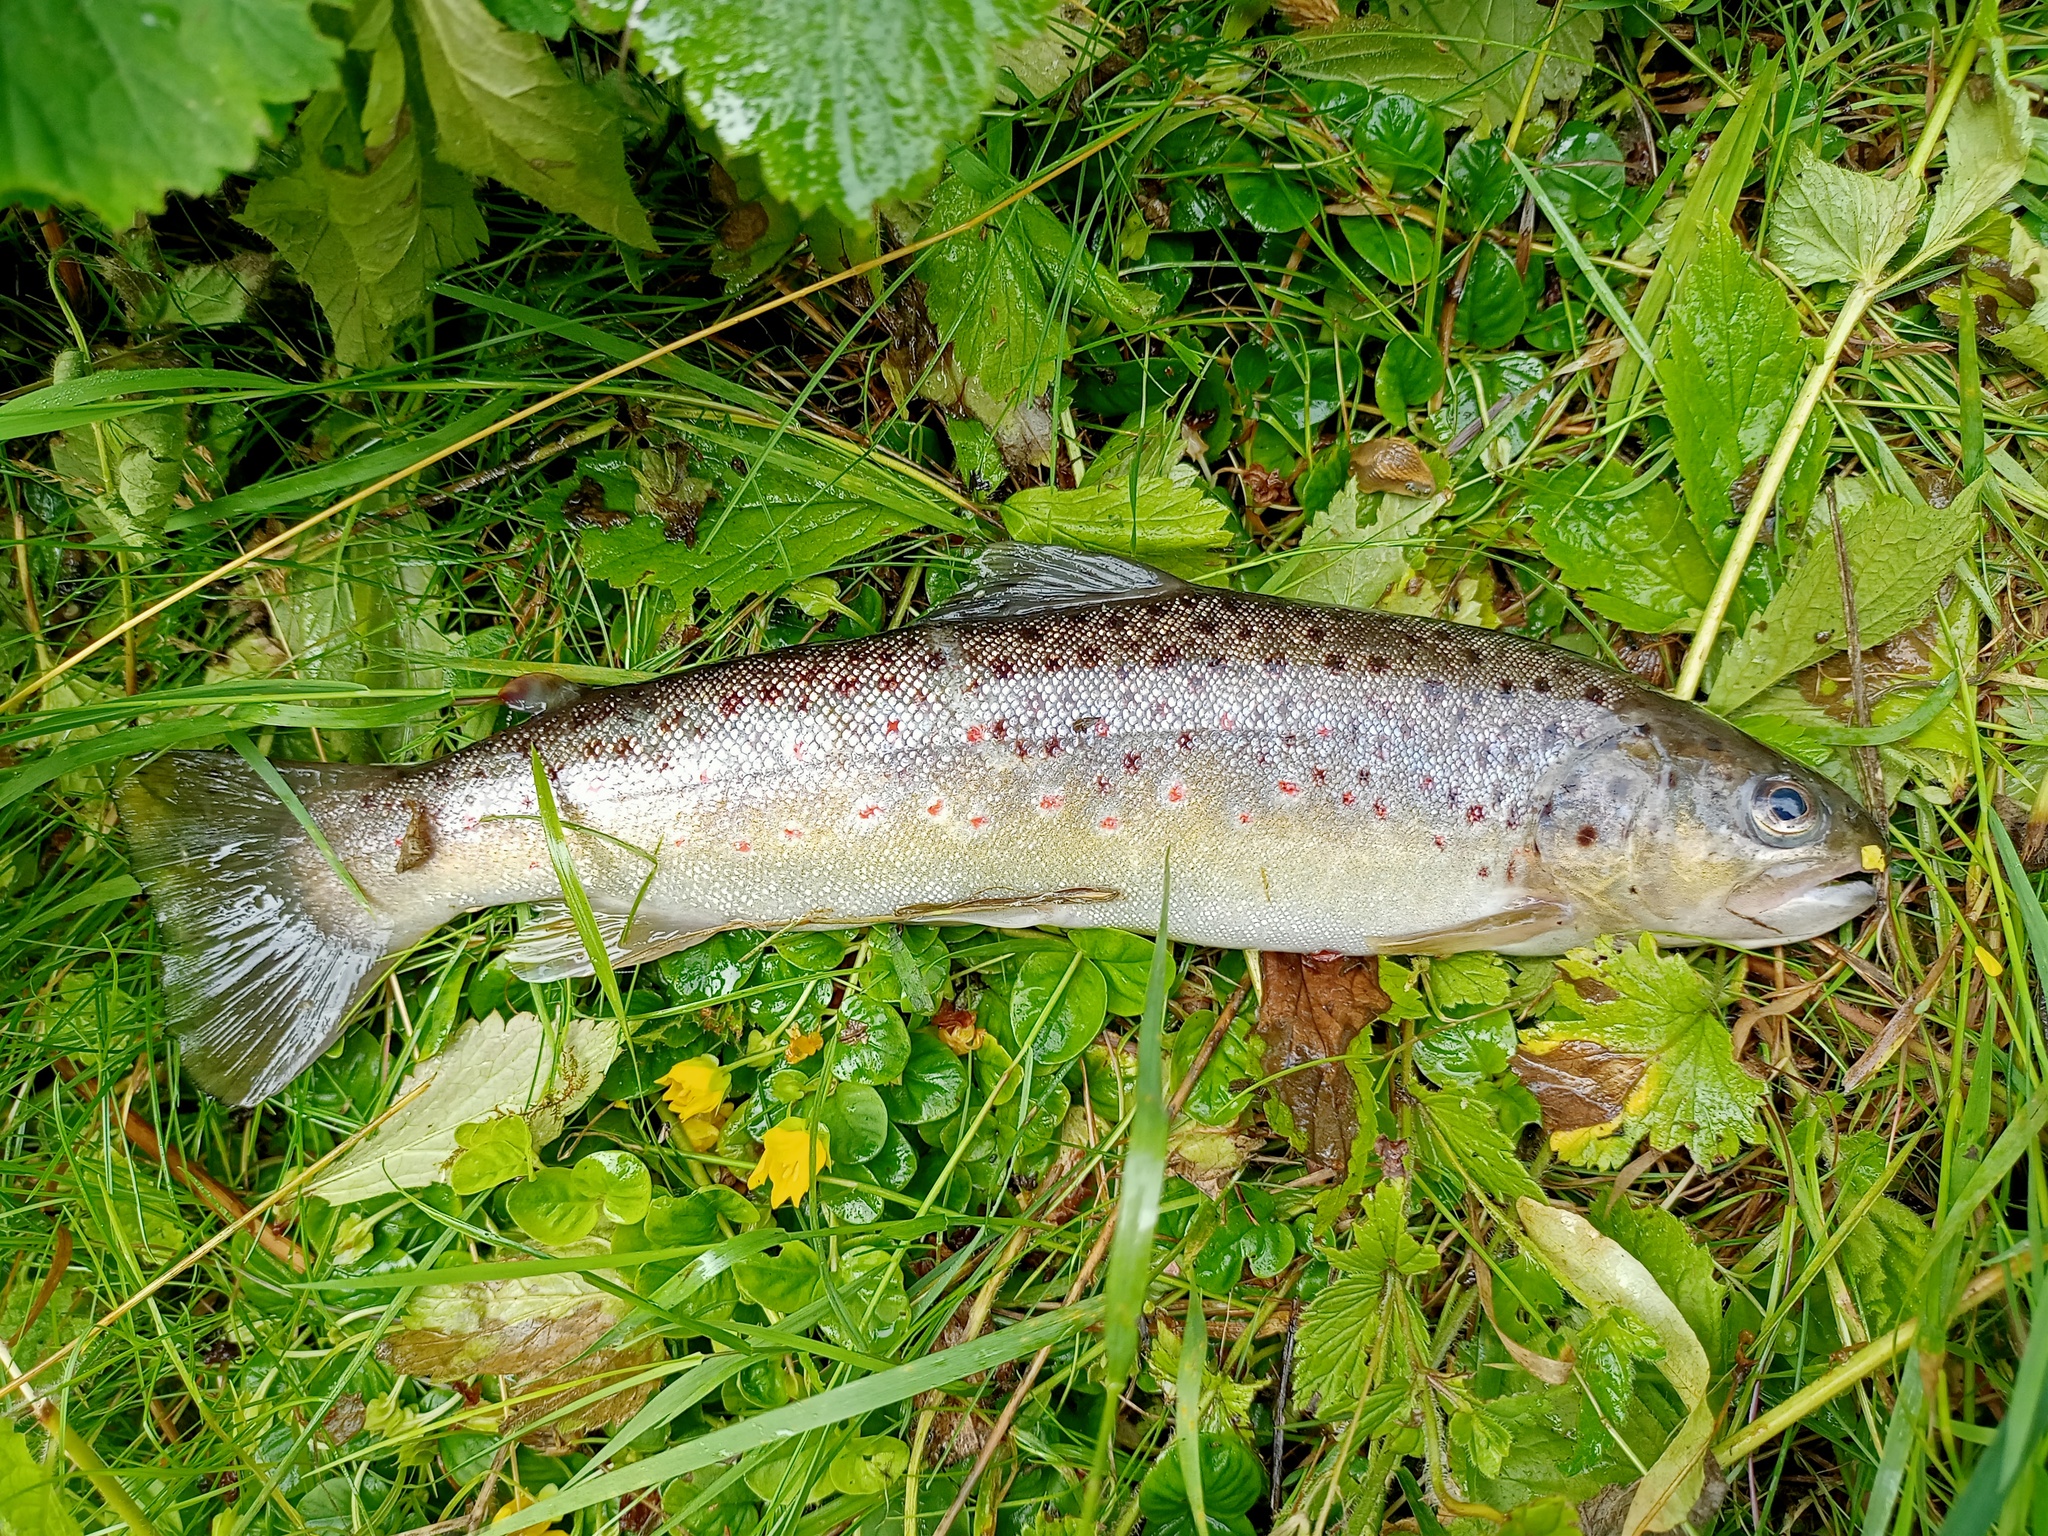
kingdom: Animalia
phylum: Chordata
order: Salmoniformes
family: Salmonidae
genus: Salmo
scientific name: Salmo trutta
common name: Brown trout
